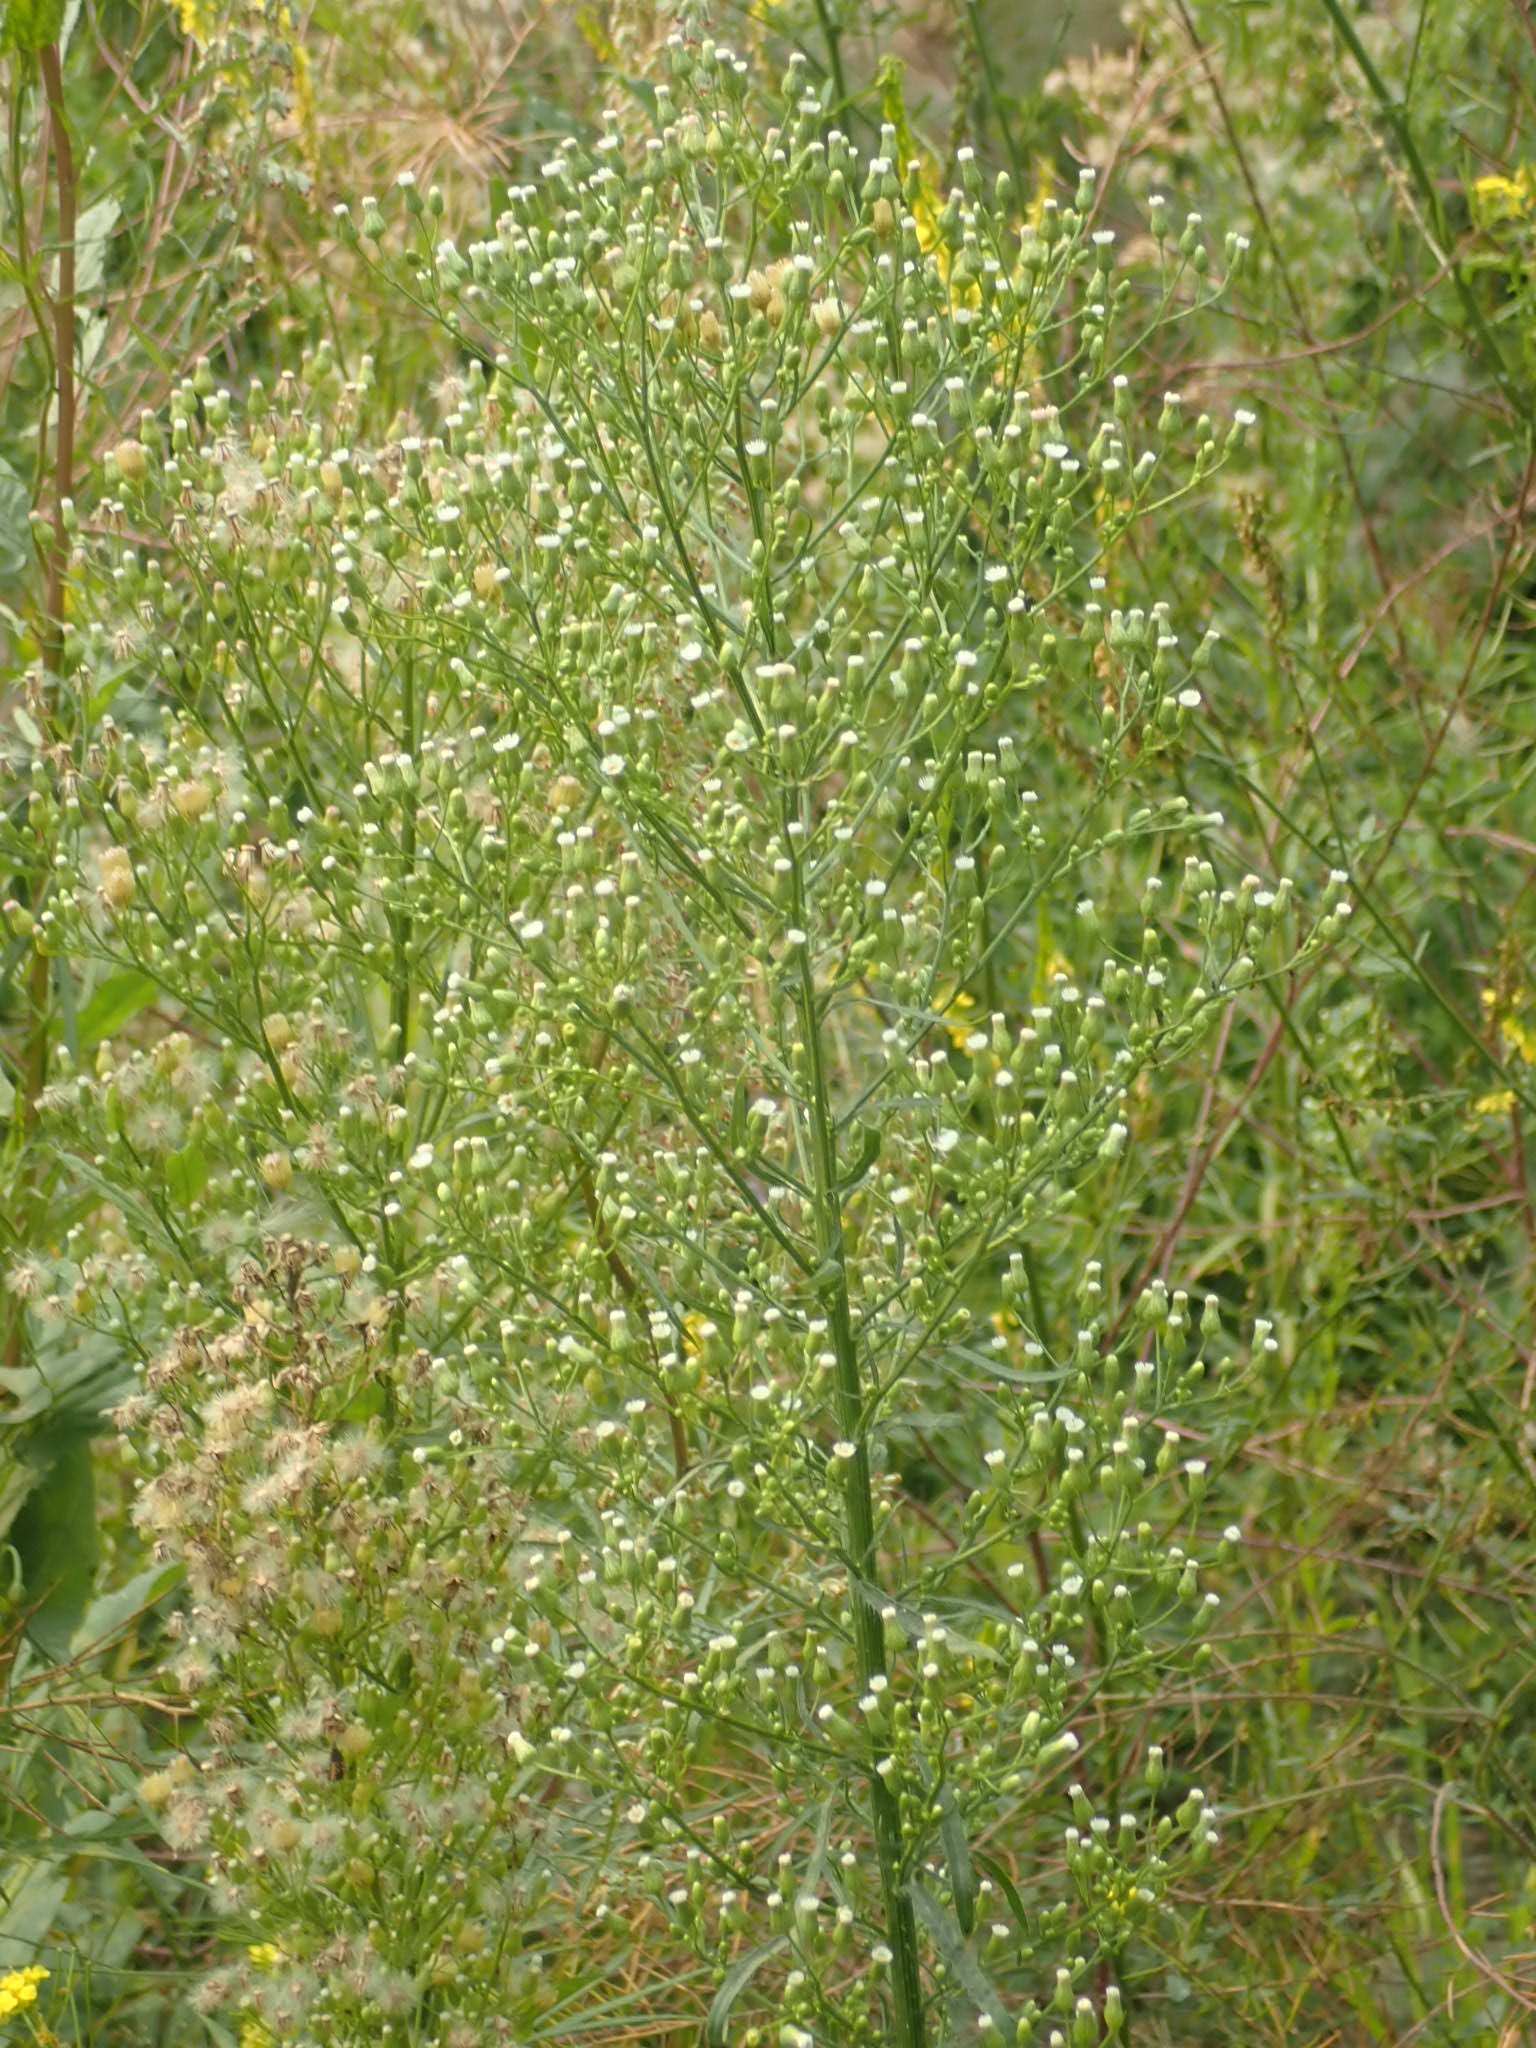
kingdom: Plantae
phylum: Tracheophyta
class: Magnoliopsida
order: Asterales
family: Asteraceae
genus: Erigeron
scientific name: Erigeron canadensis
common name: Canadian fleabane
